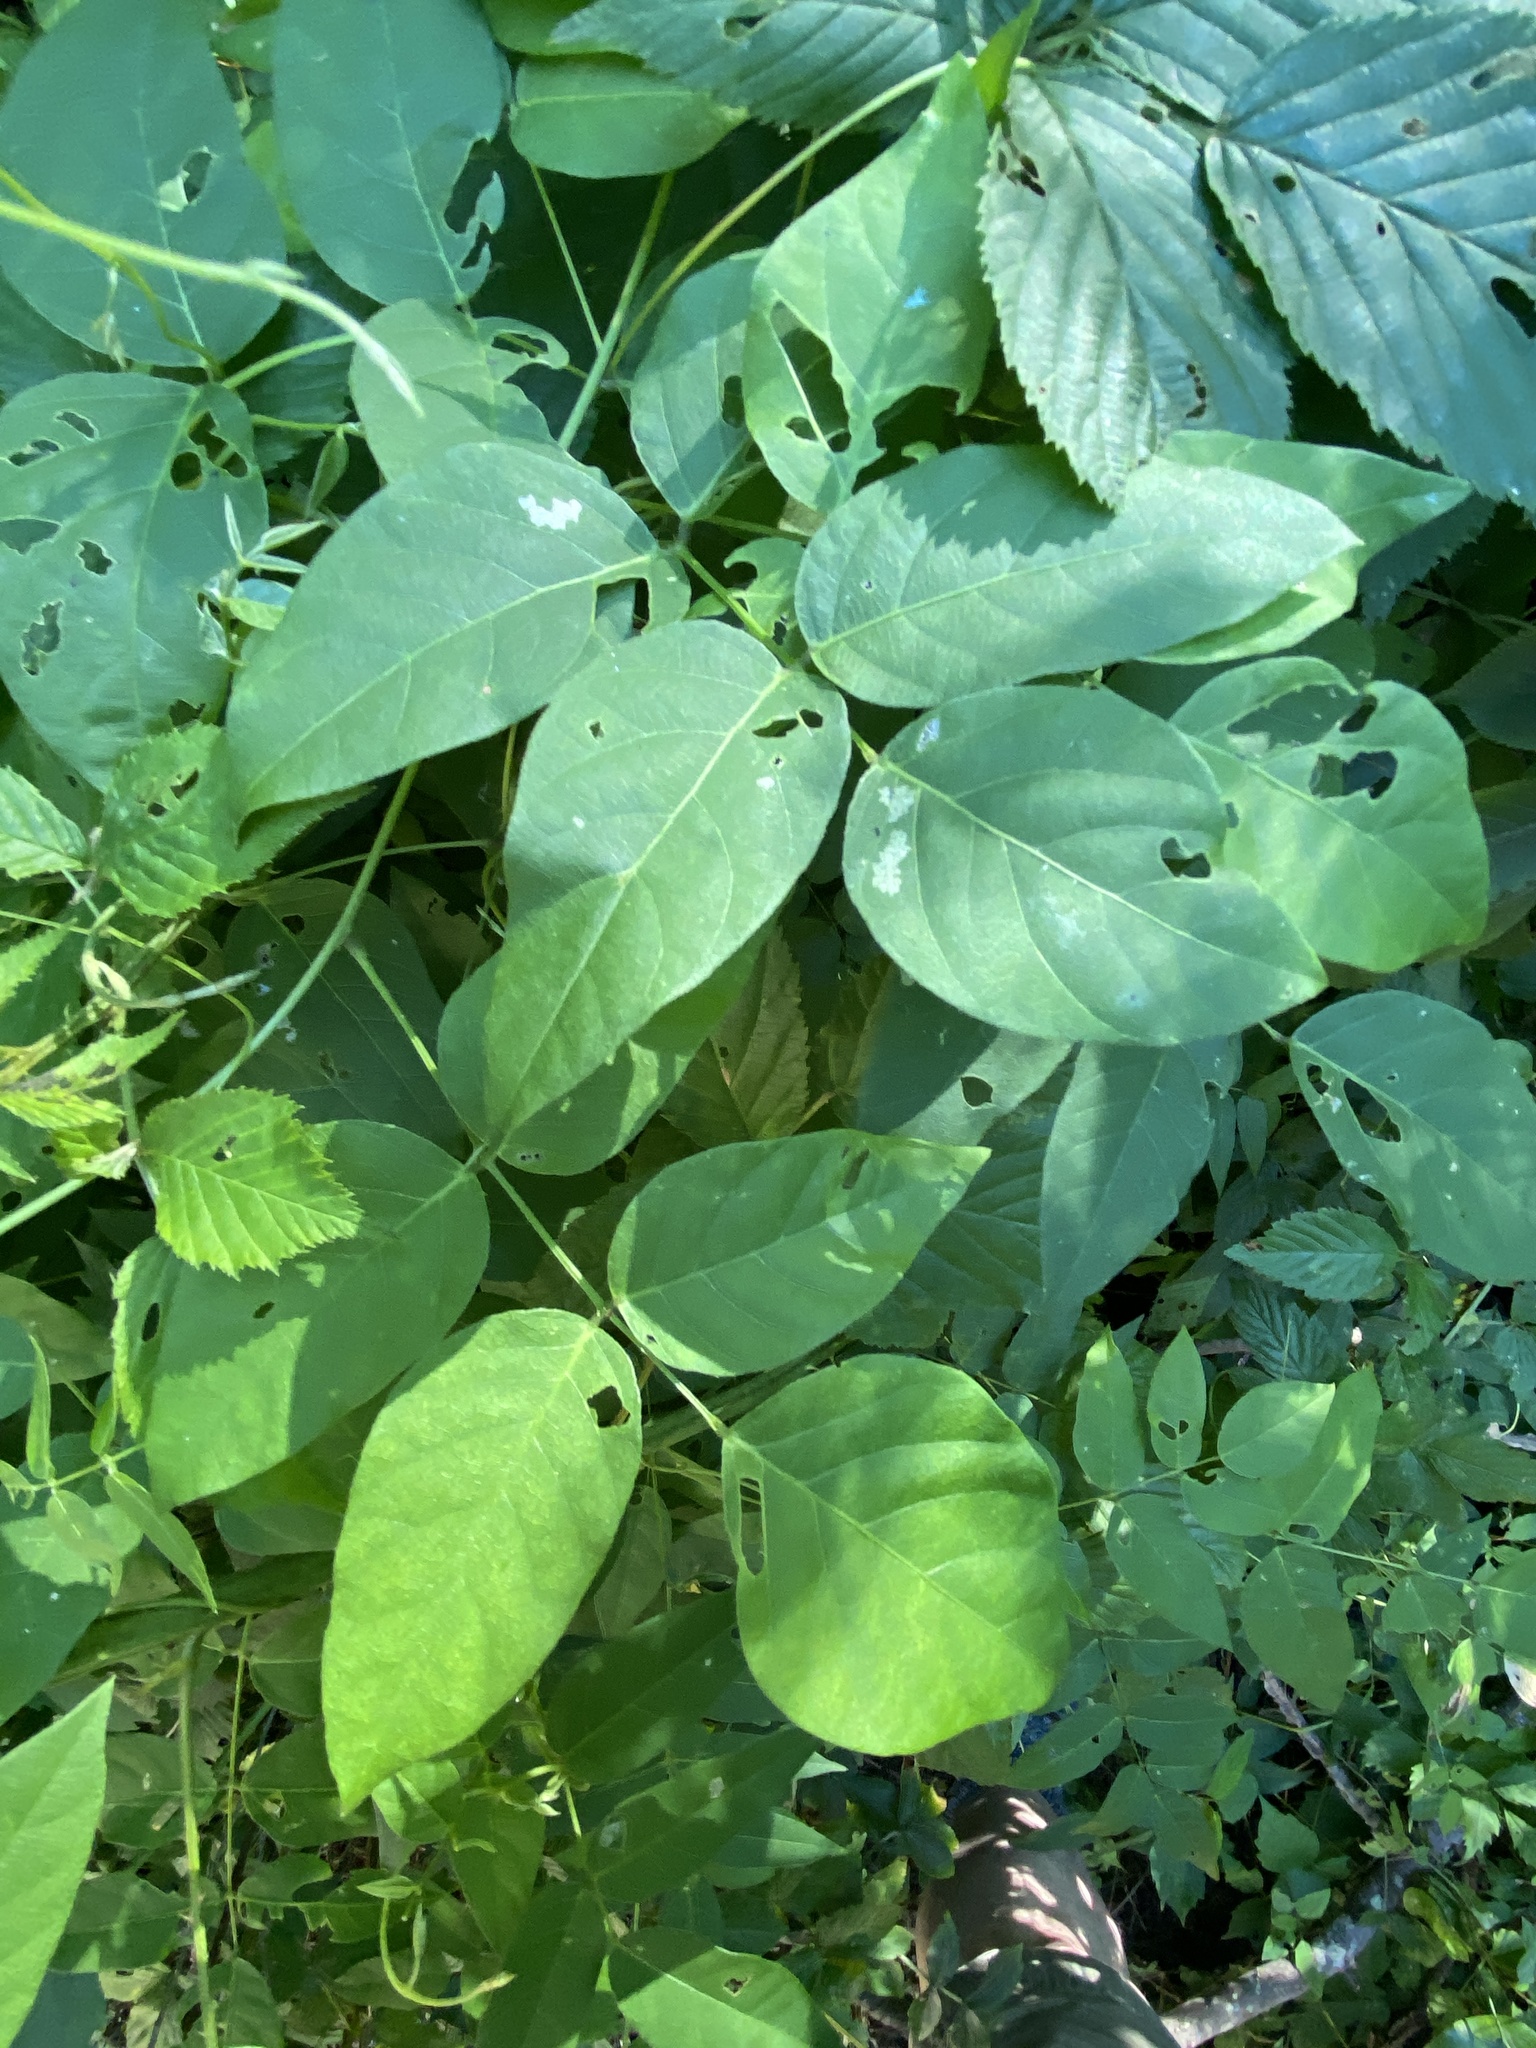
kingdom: Plantae
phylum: Tracheophyta
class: Magnoliopsida
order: Fabales
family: Fabaceae
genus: Apios
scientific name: Apios americana
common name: American potato-bean
